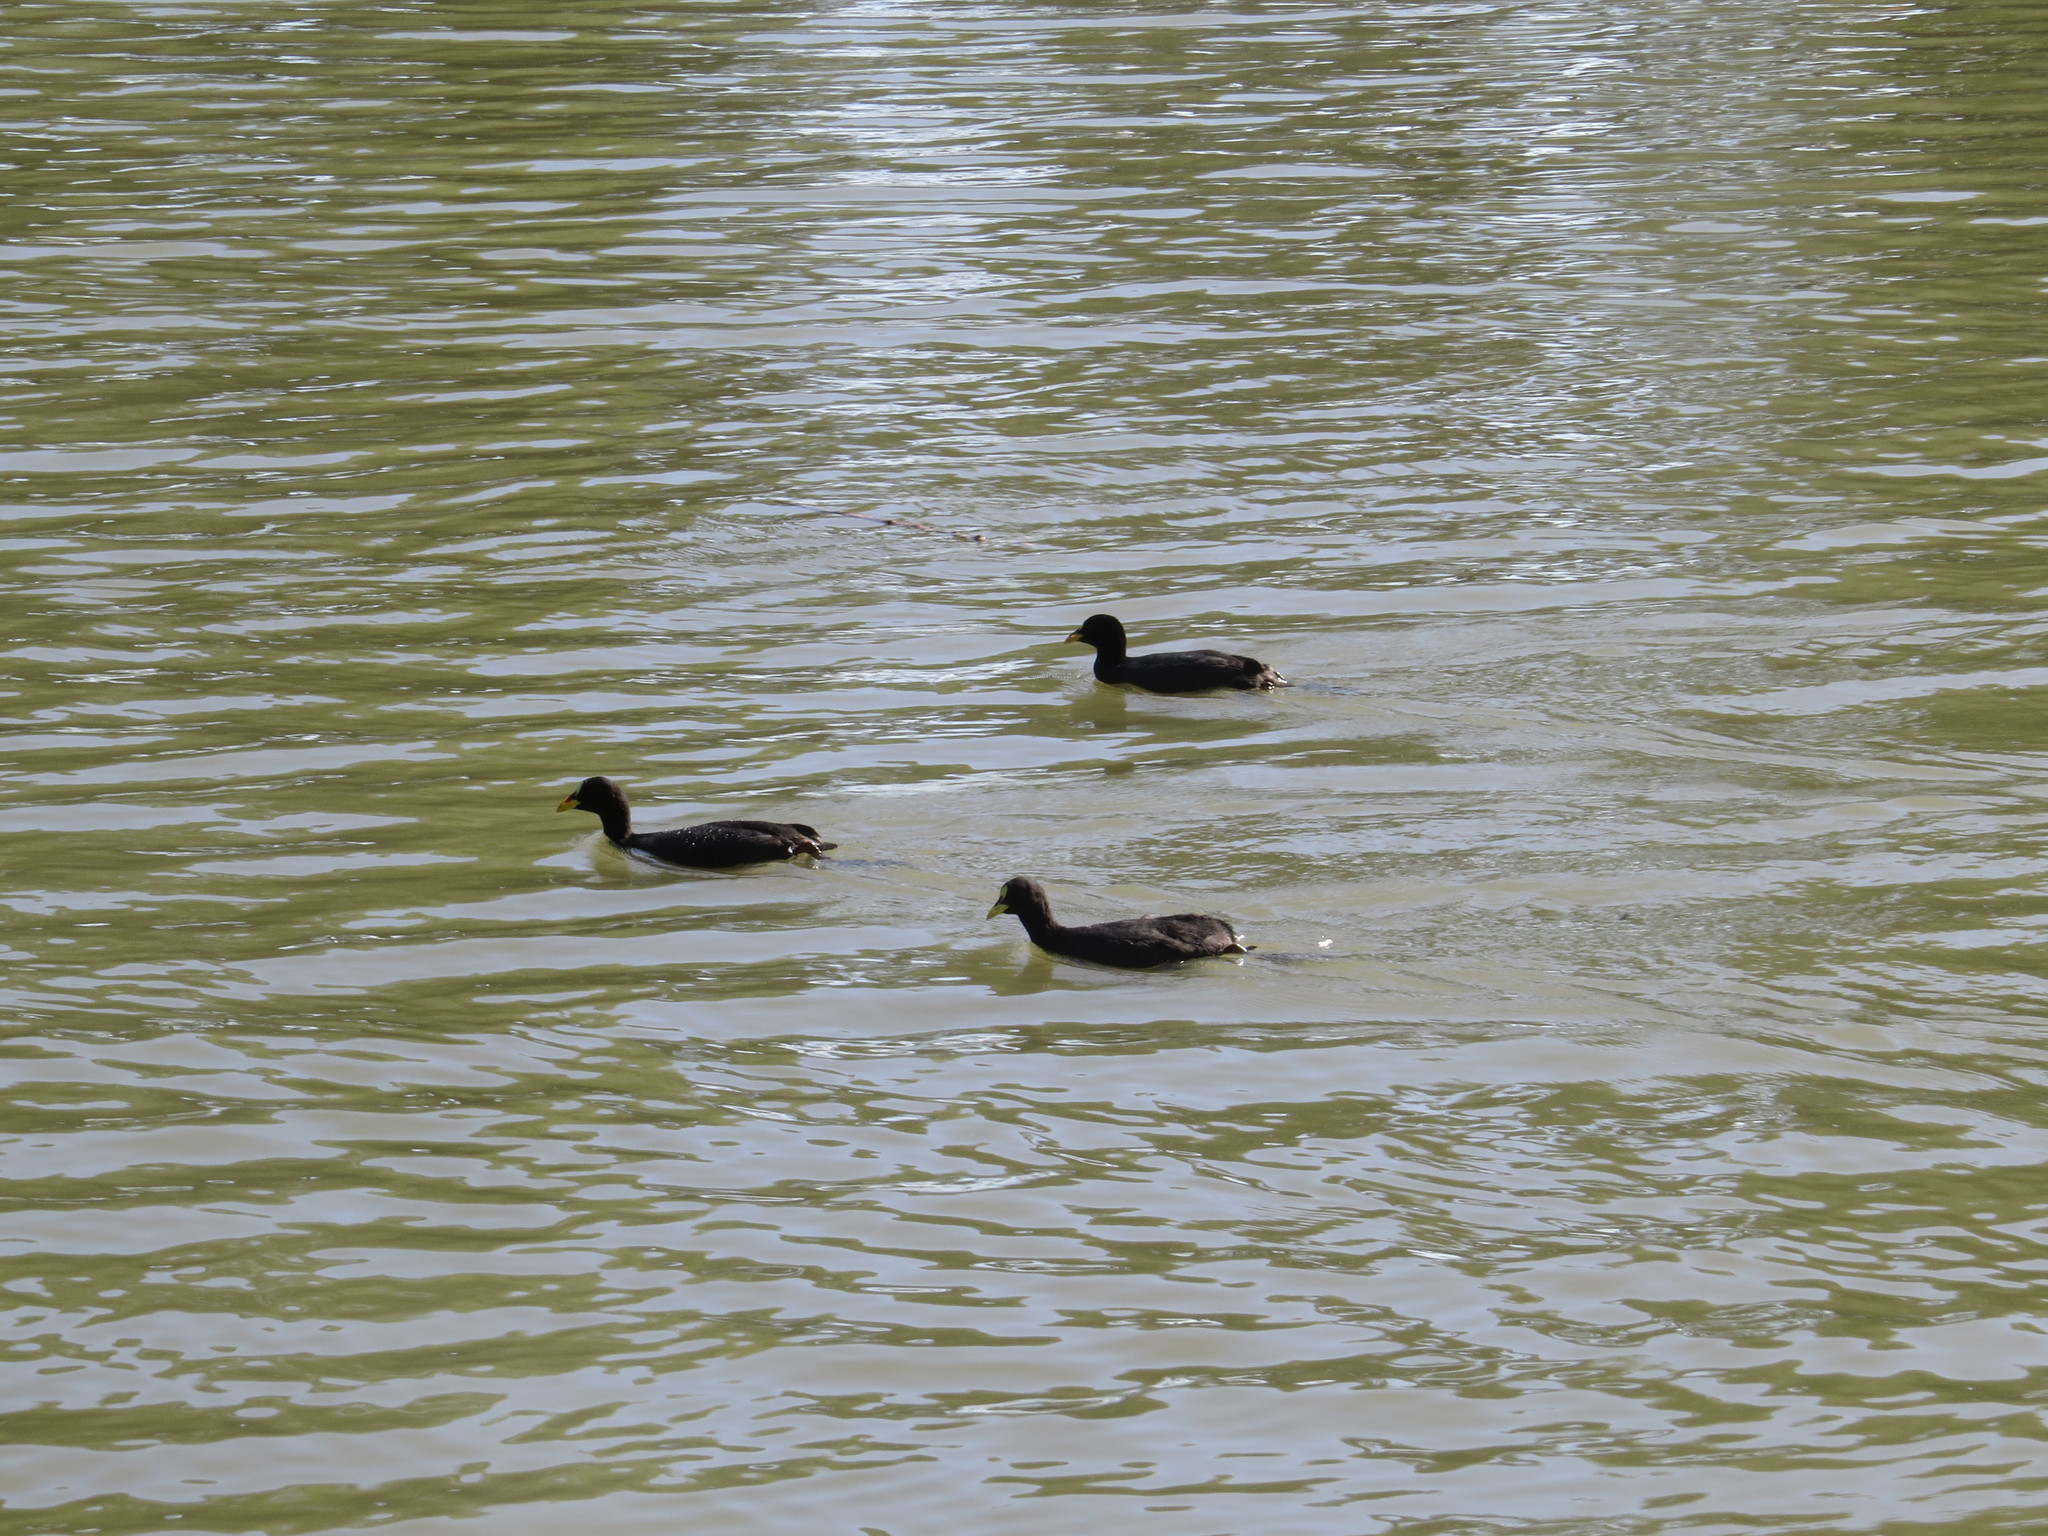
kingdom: Animalia
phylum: Chordata
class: Aves
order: Gruiformes
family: Rallidae
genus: Fulica
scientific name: Fulica armillata
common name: Red-gartered coot
